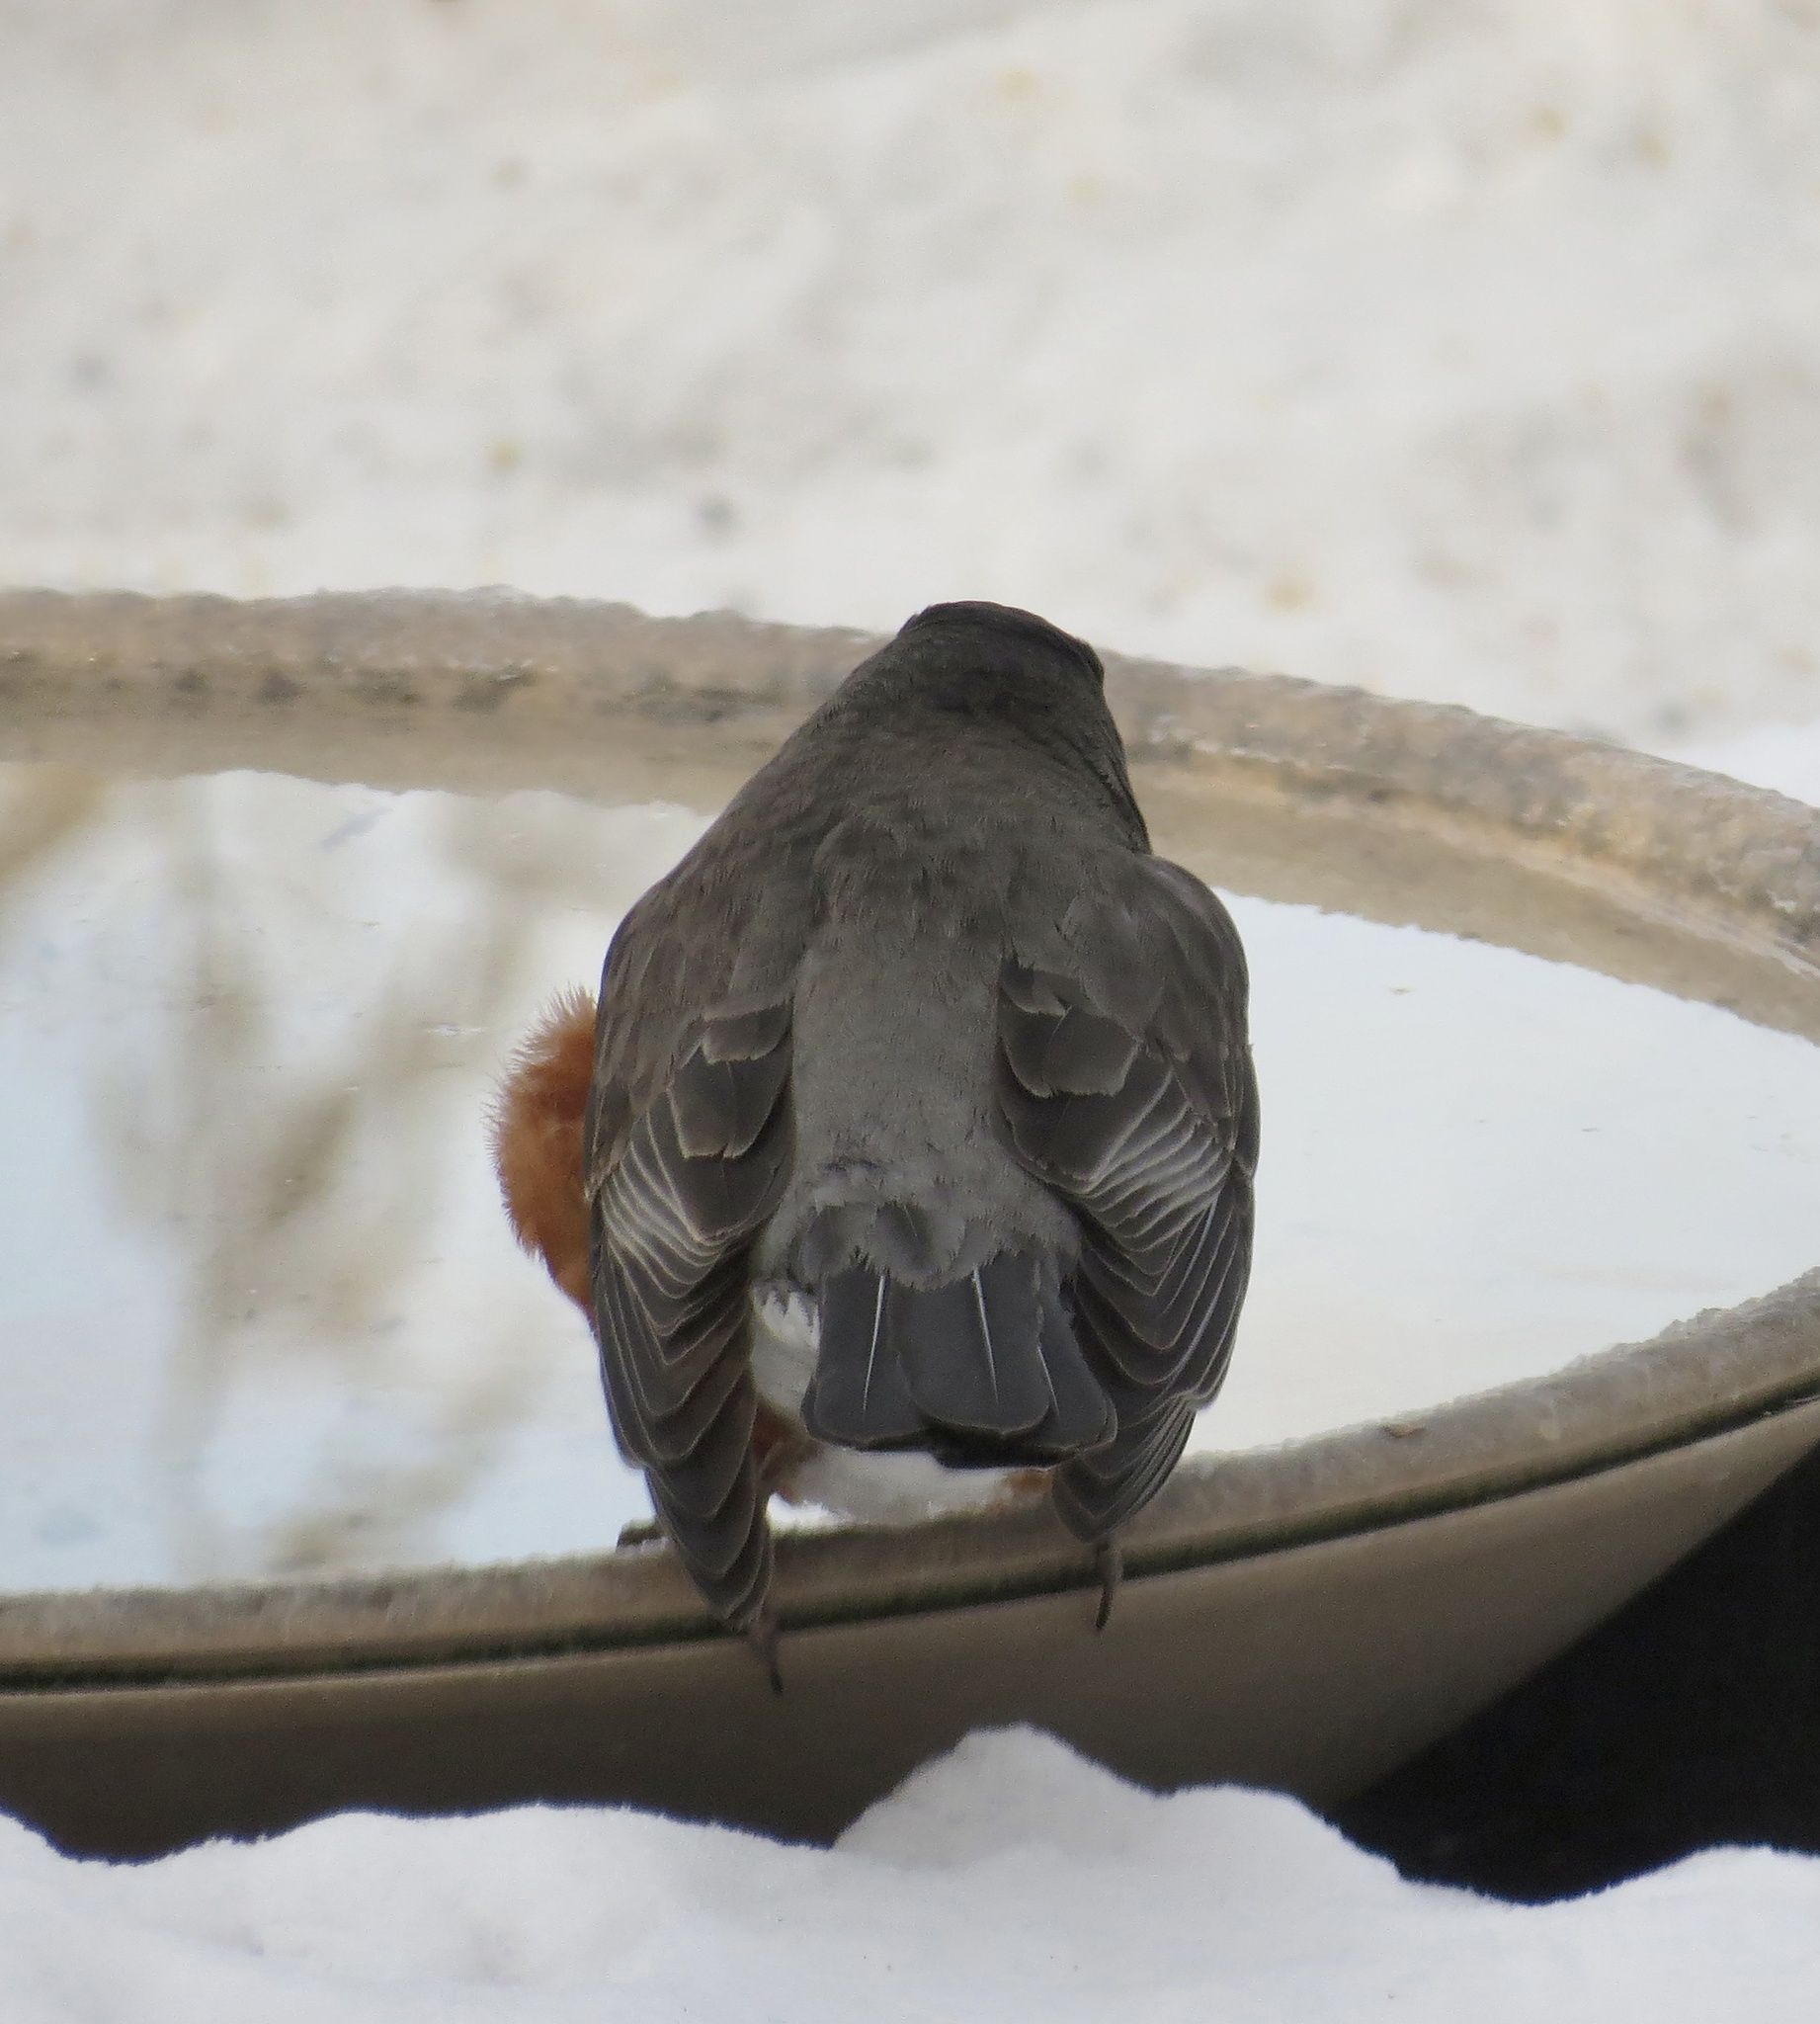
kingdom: Animalia
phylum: Chordata
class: Aves
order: Passeriformes
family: Turdidae
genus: Turdus
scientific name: Turdus migratorius
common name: American robin
